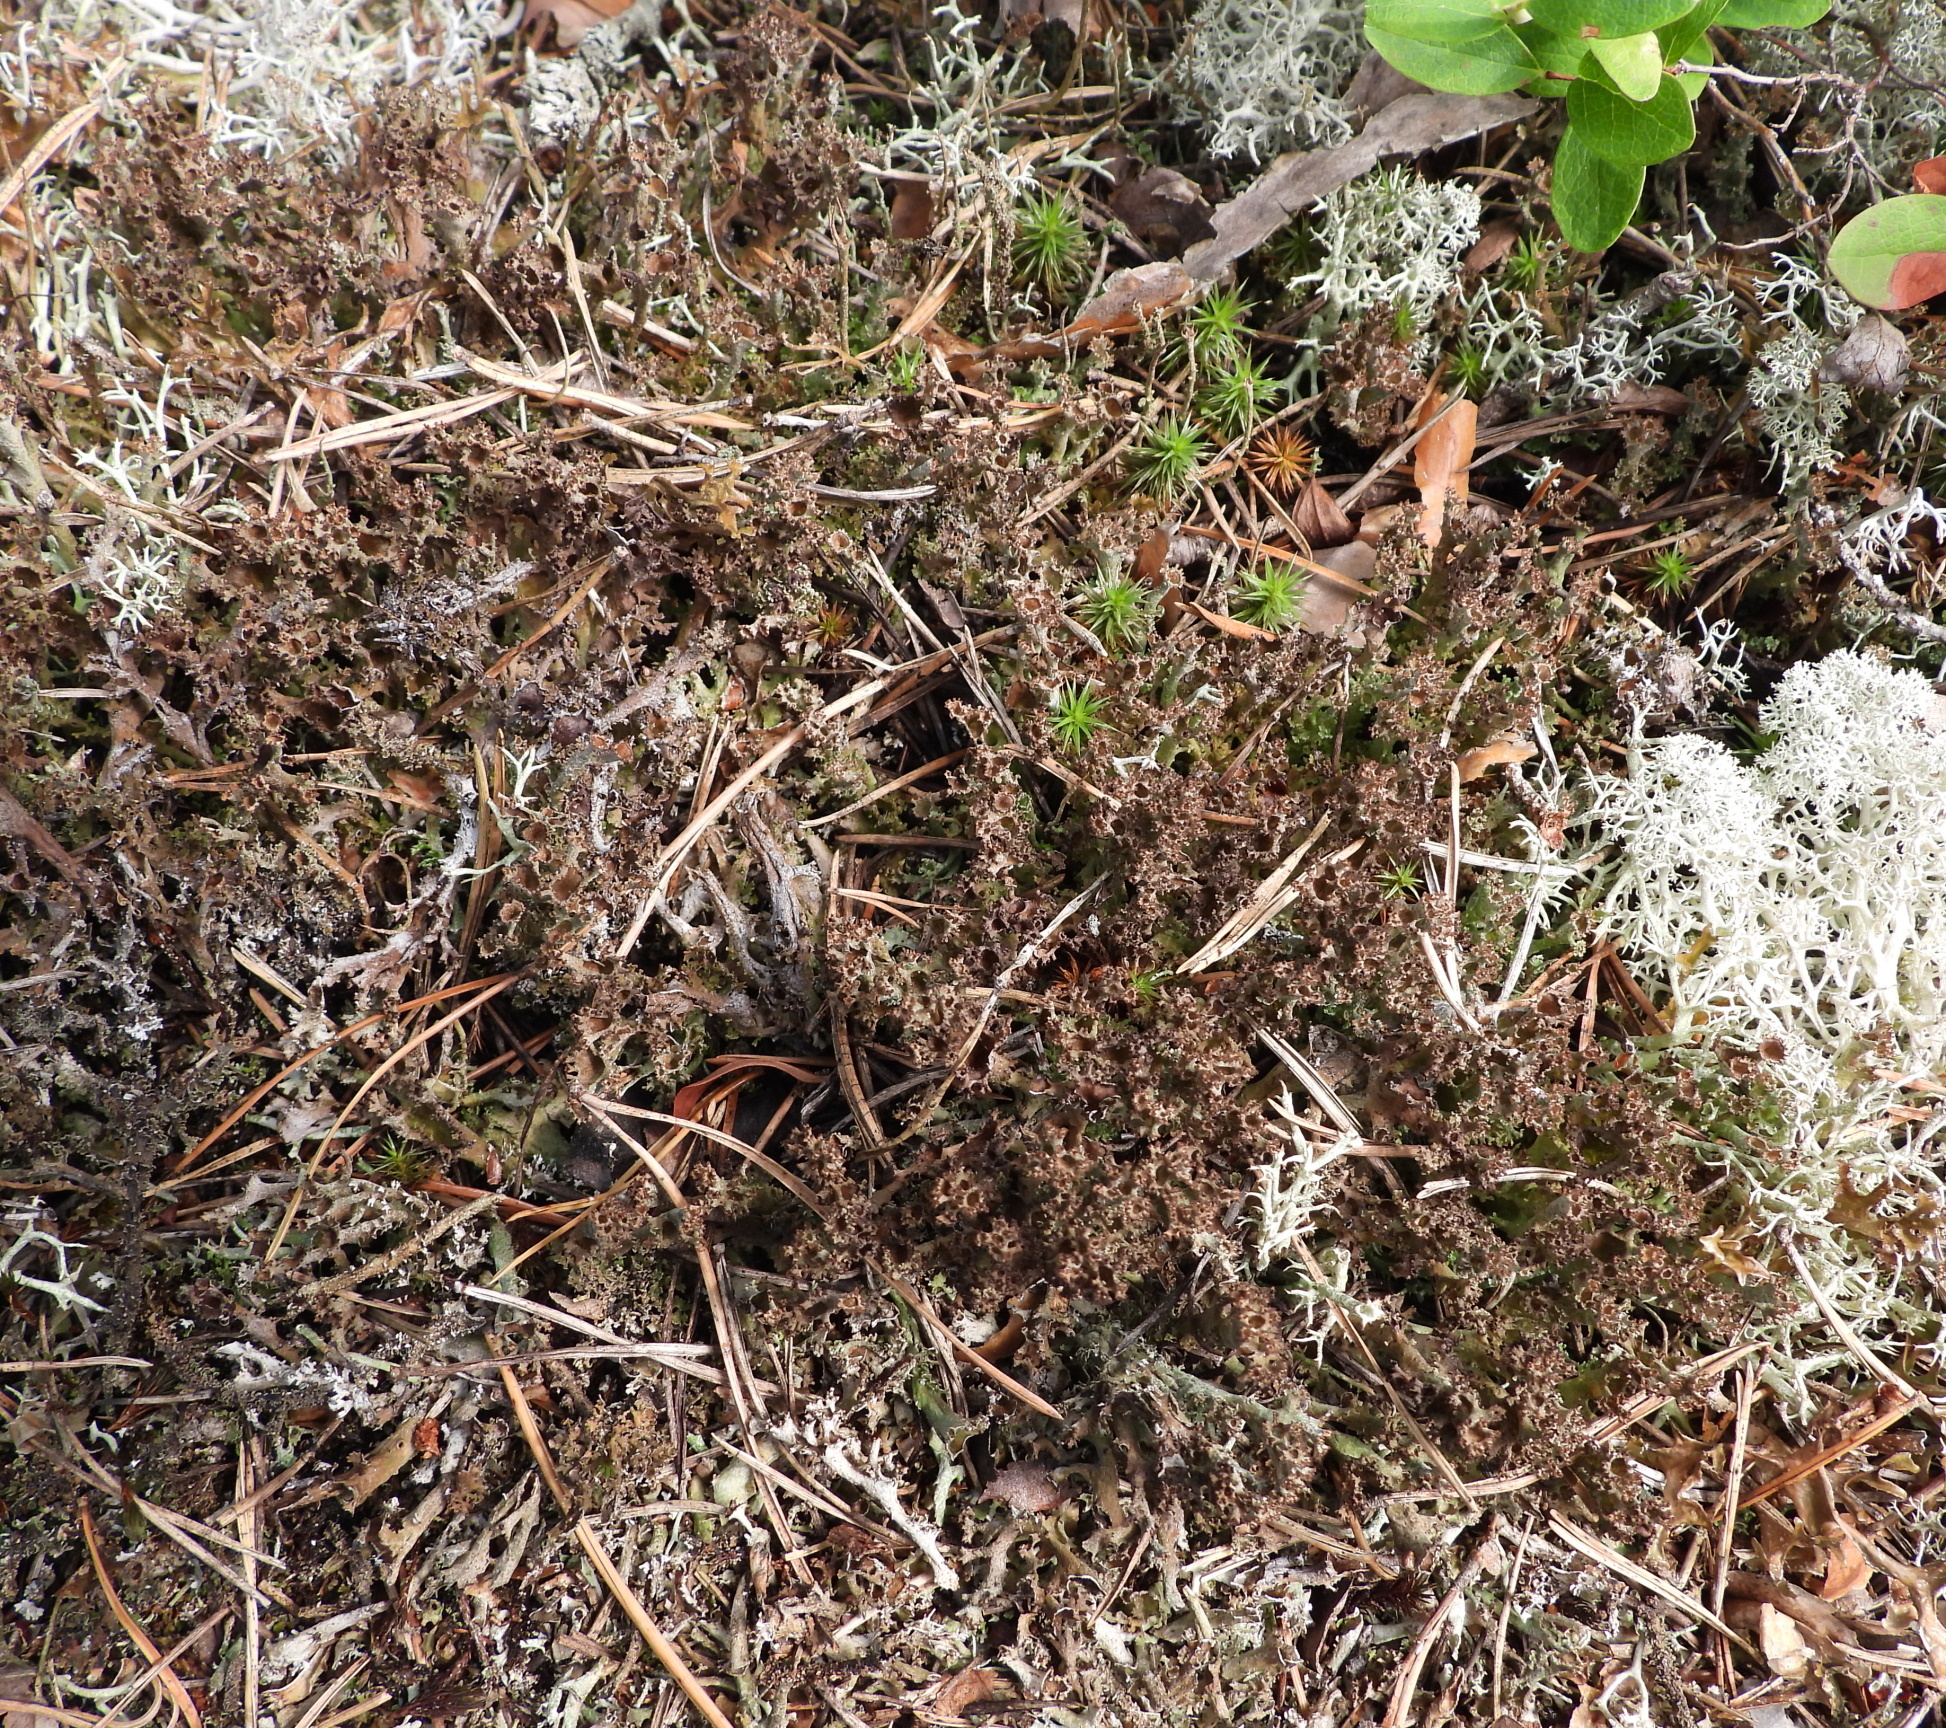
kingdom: Fungi
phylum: Ascomycota
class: Lecanoromycetes
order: Lecanorales
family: Cladoniaceae
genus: Cladonia
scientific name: Cladonia crispata
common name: Organ-pipe lichen
